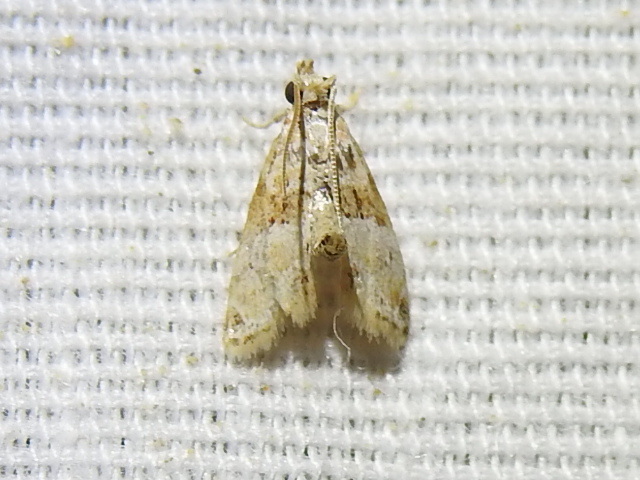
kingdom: Animalia
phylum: Arthropoda
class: Insecta
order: Lepidoptera
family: Pyralidae
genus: Neodavisia
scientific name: Neodavisia melusina
